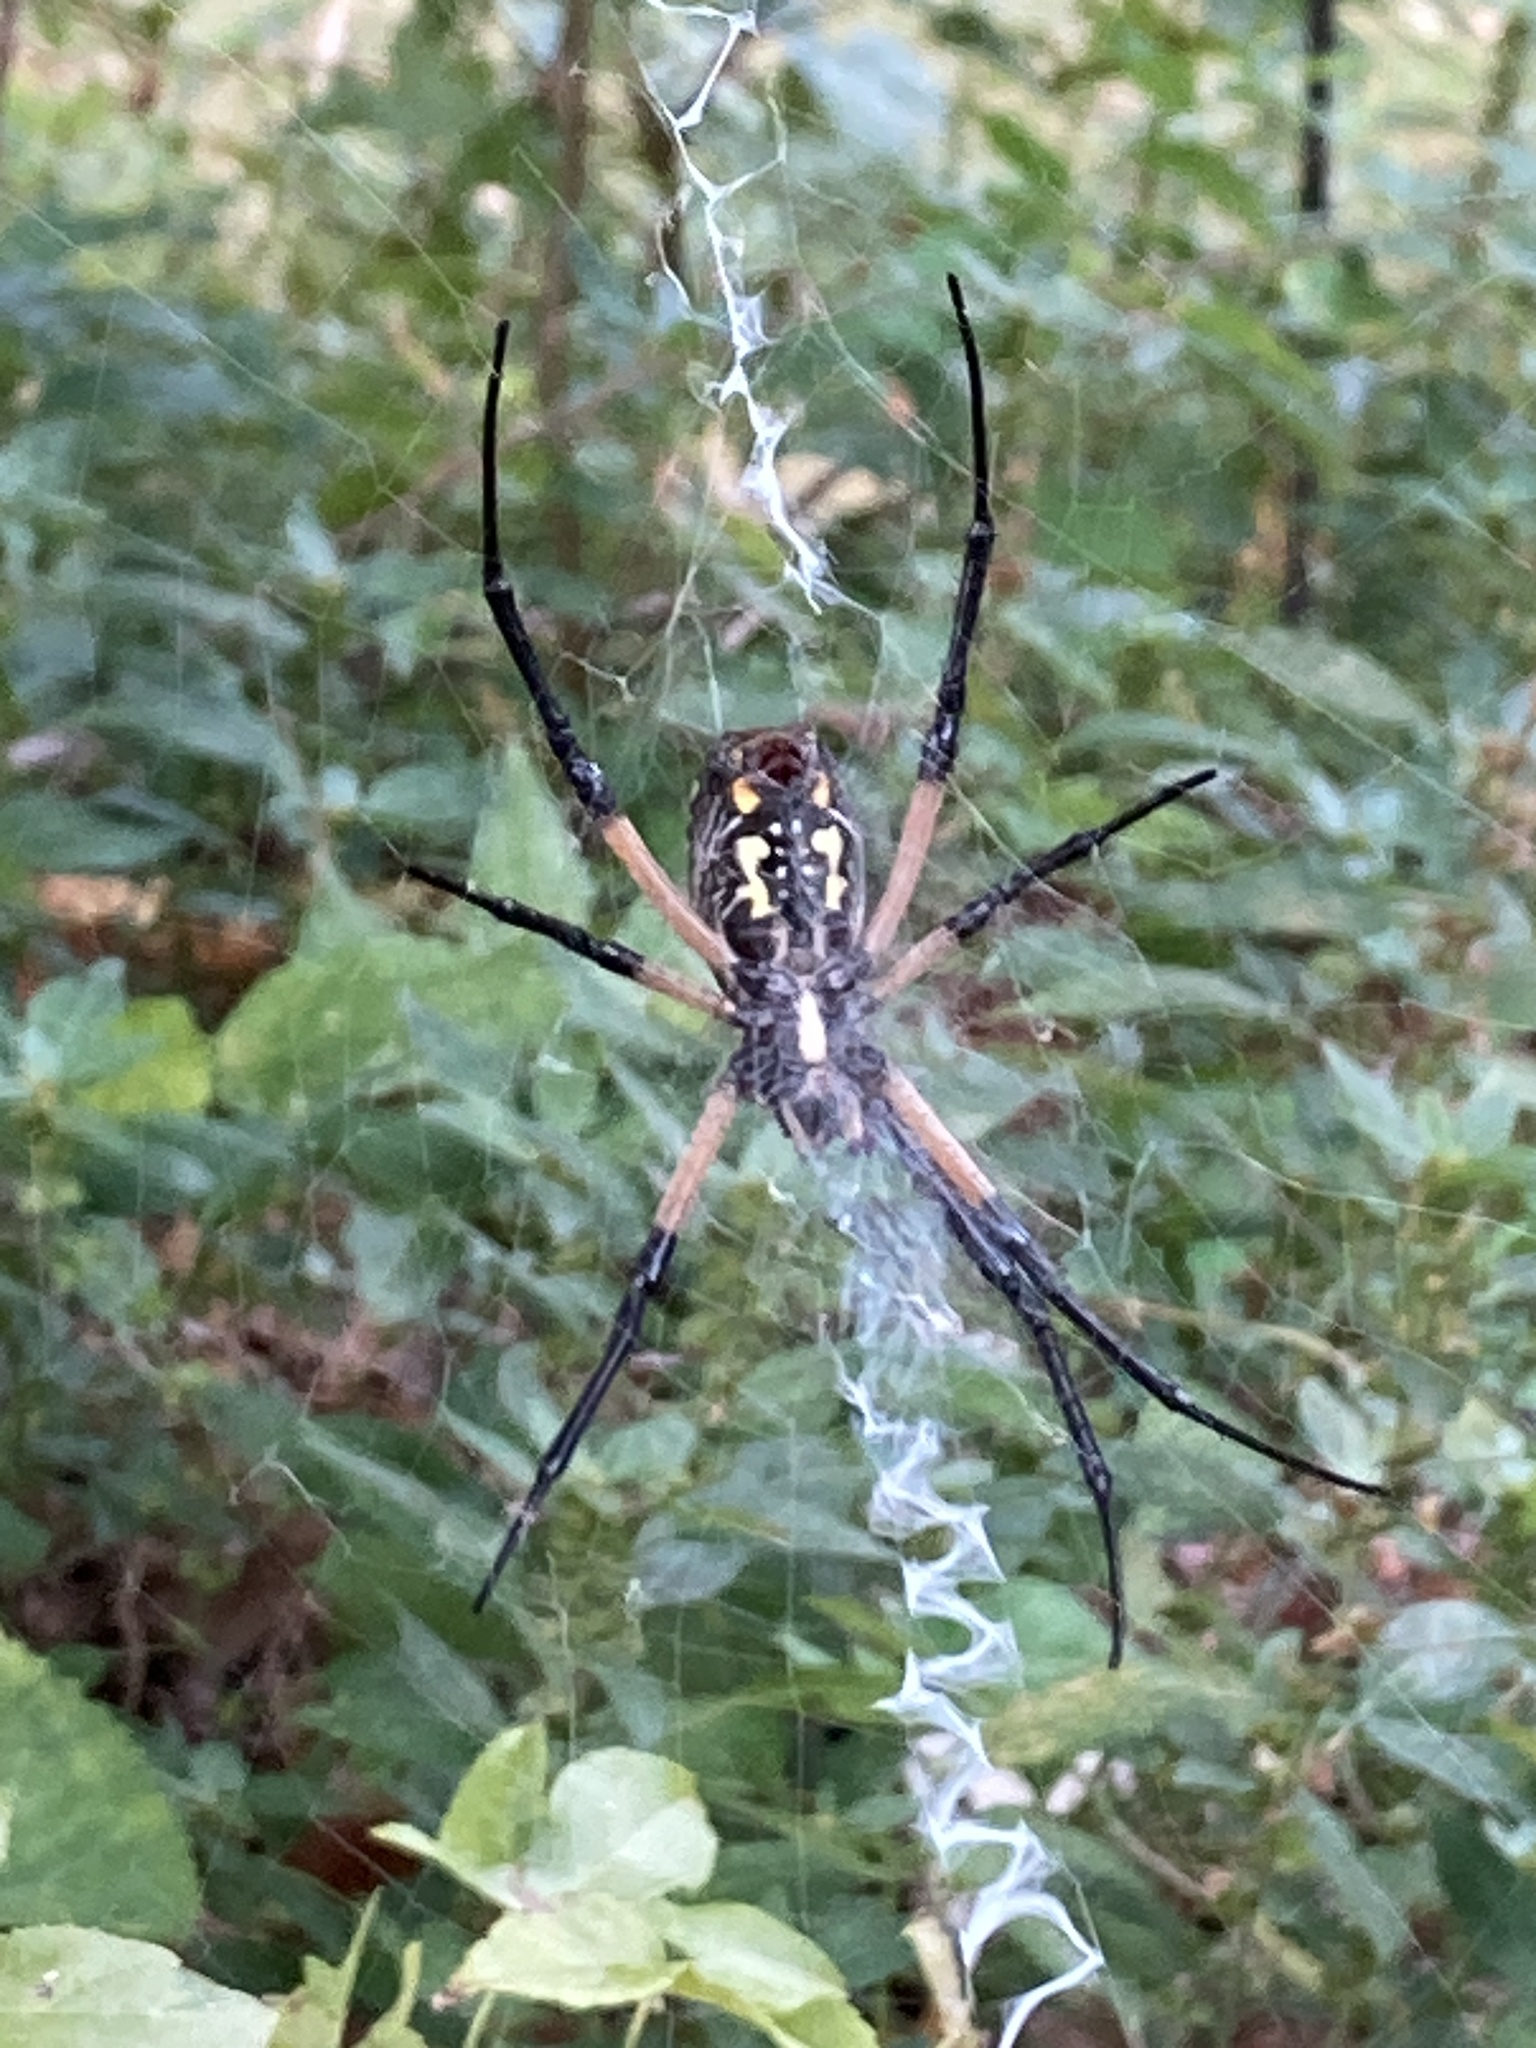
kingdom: Animalia
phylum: Arthropoda
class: Arachnida
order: Araneae
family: Araneidae
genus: Argiope
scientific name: Argiope aurantia
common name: Orb weavers
